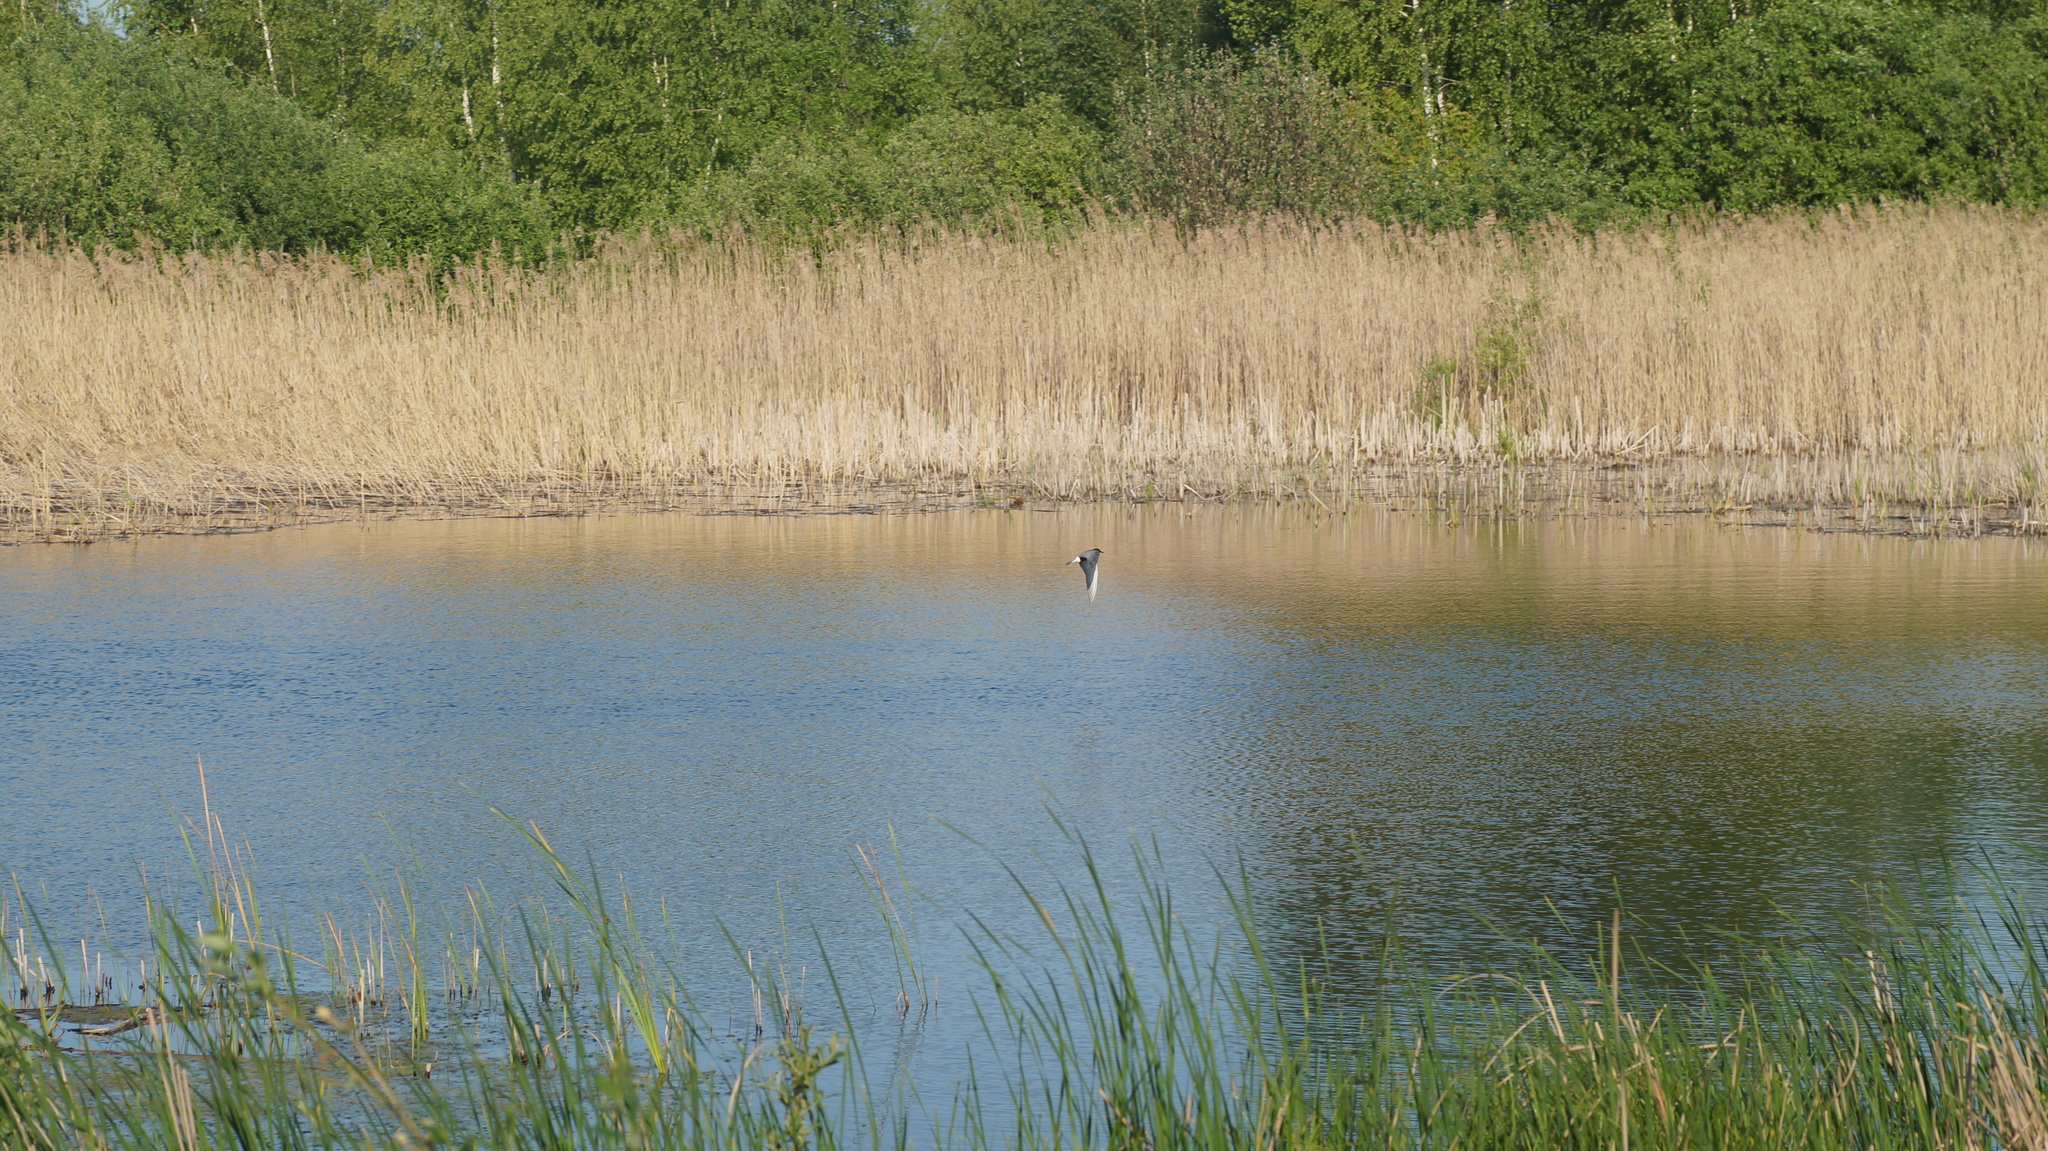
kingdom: Animalia
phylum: Chordata
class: Aves
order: Charadriiformes
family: Laridae
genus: Chlidonias
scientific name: Chlidonias niger
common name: Black tern
